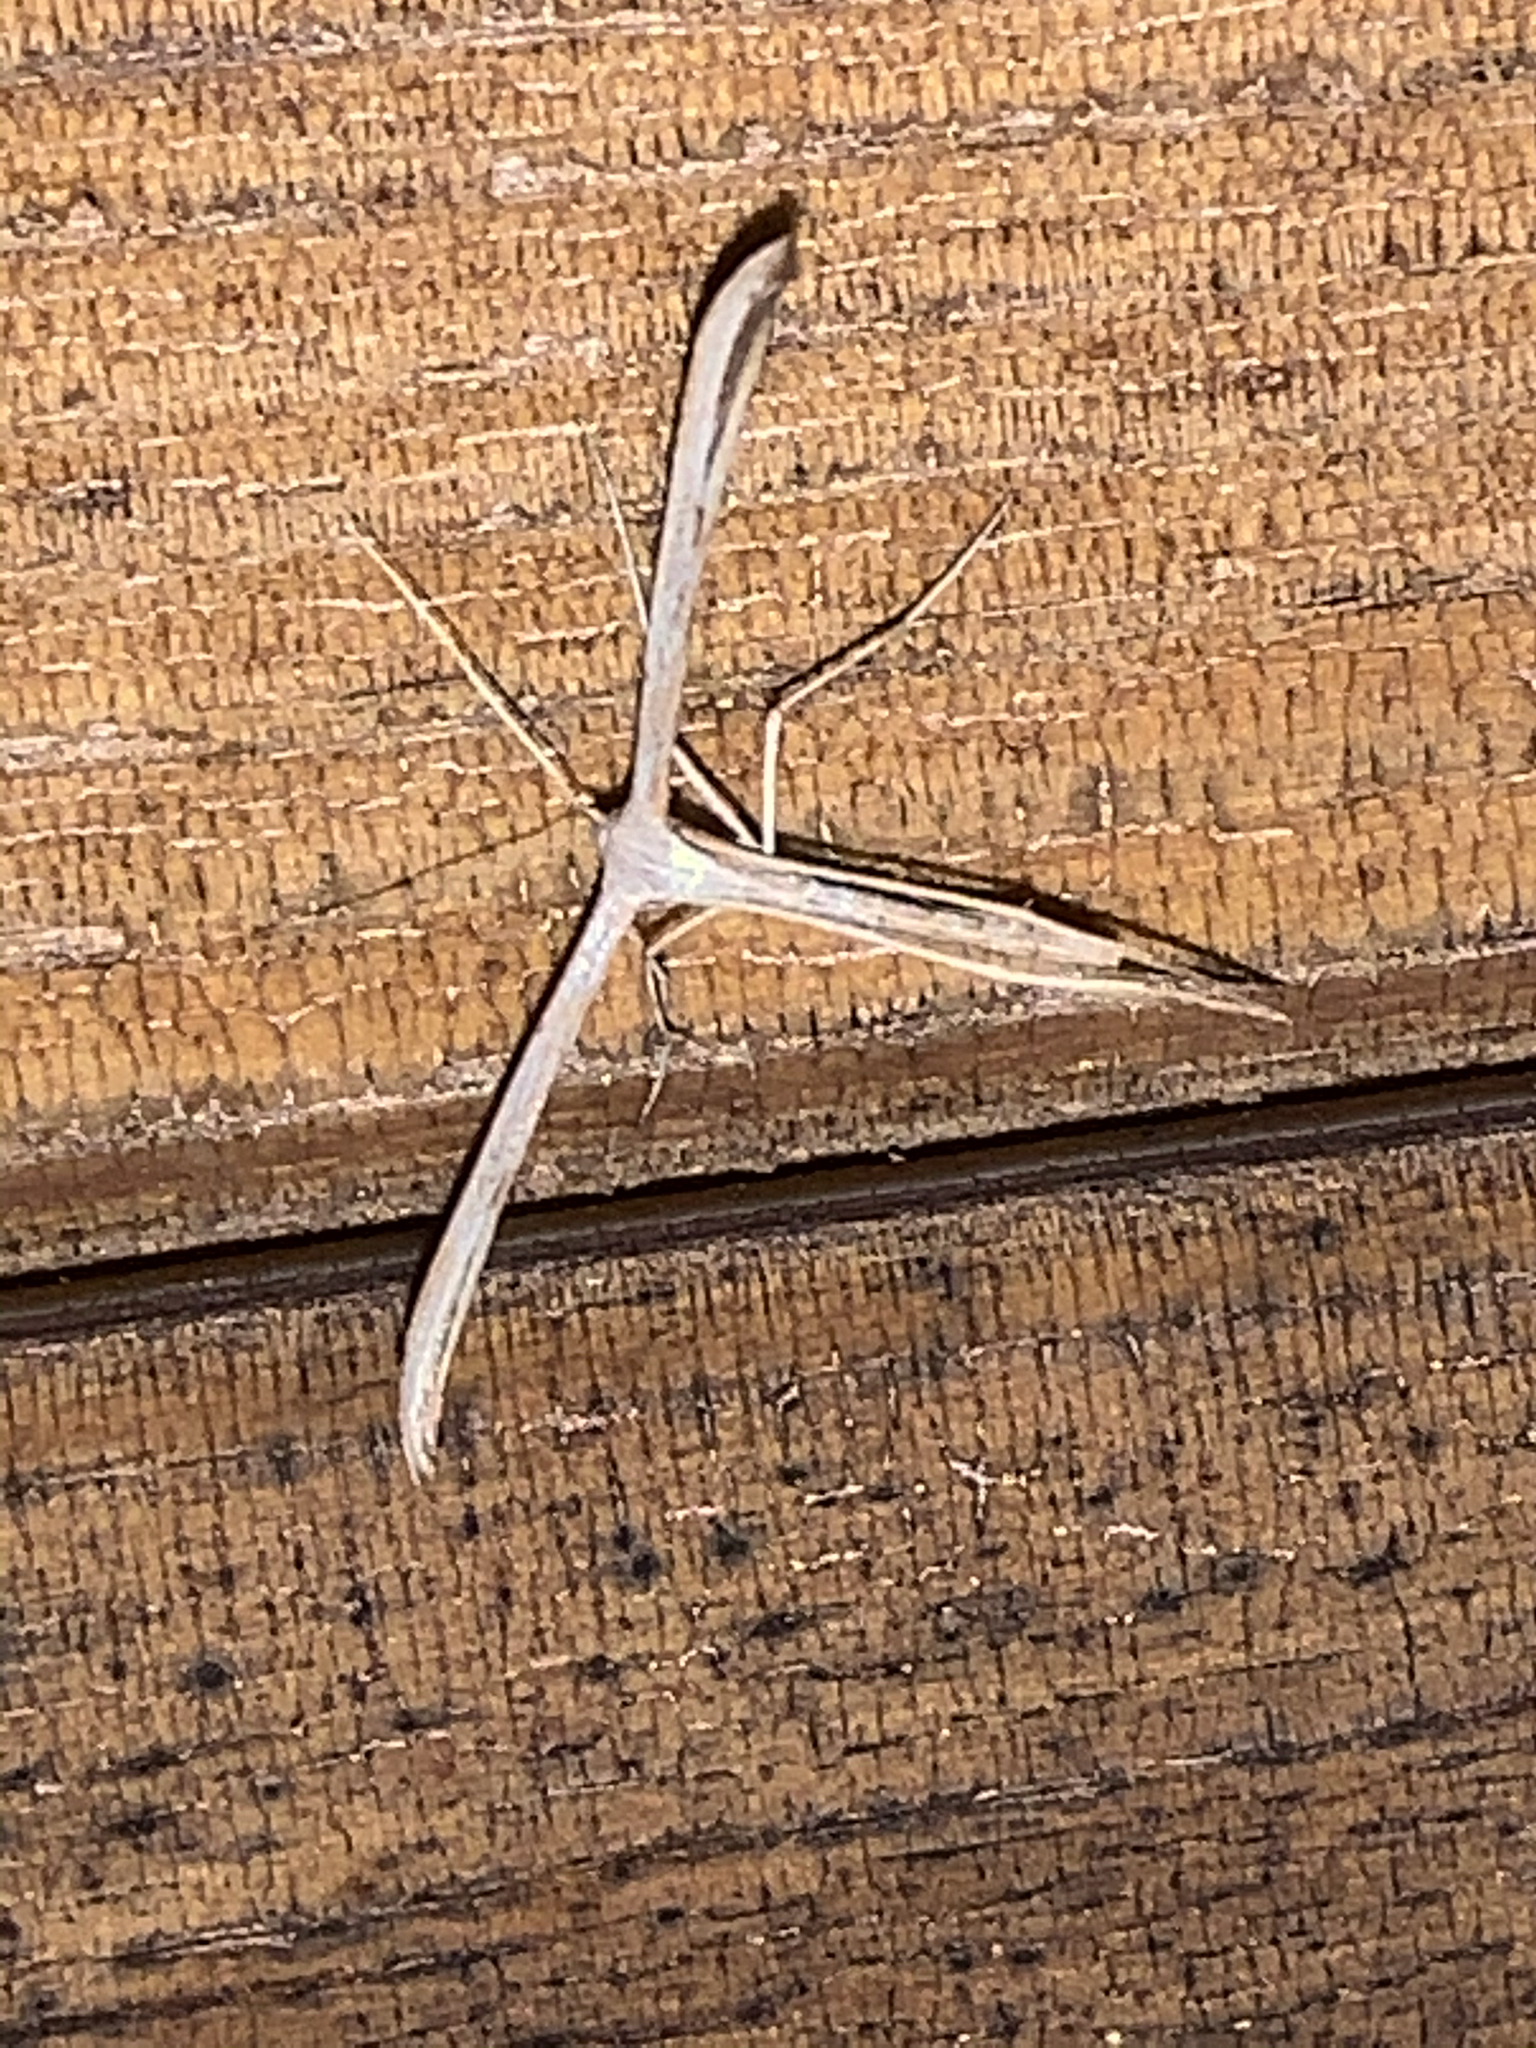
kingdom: Animalia
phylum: Arthropoda
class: Insecta
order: Lepidoptera
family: Pterophoridae
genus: Emmelina
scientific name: Emmelina monodactyla
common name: Common plume
